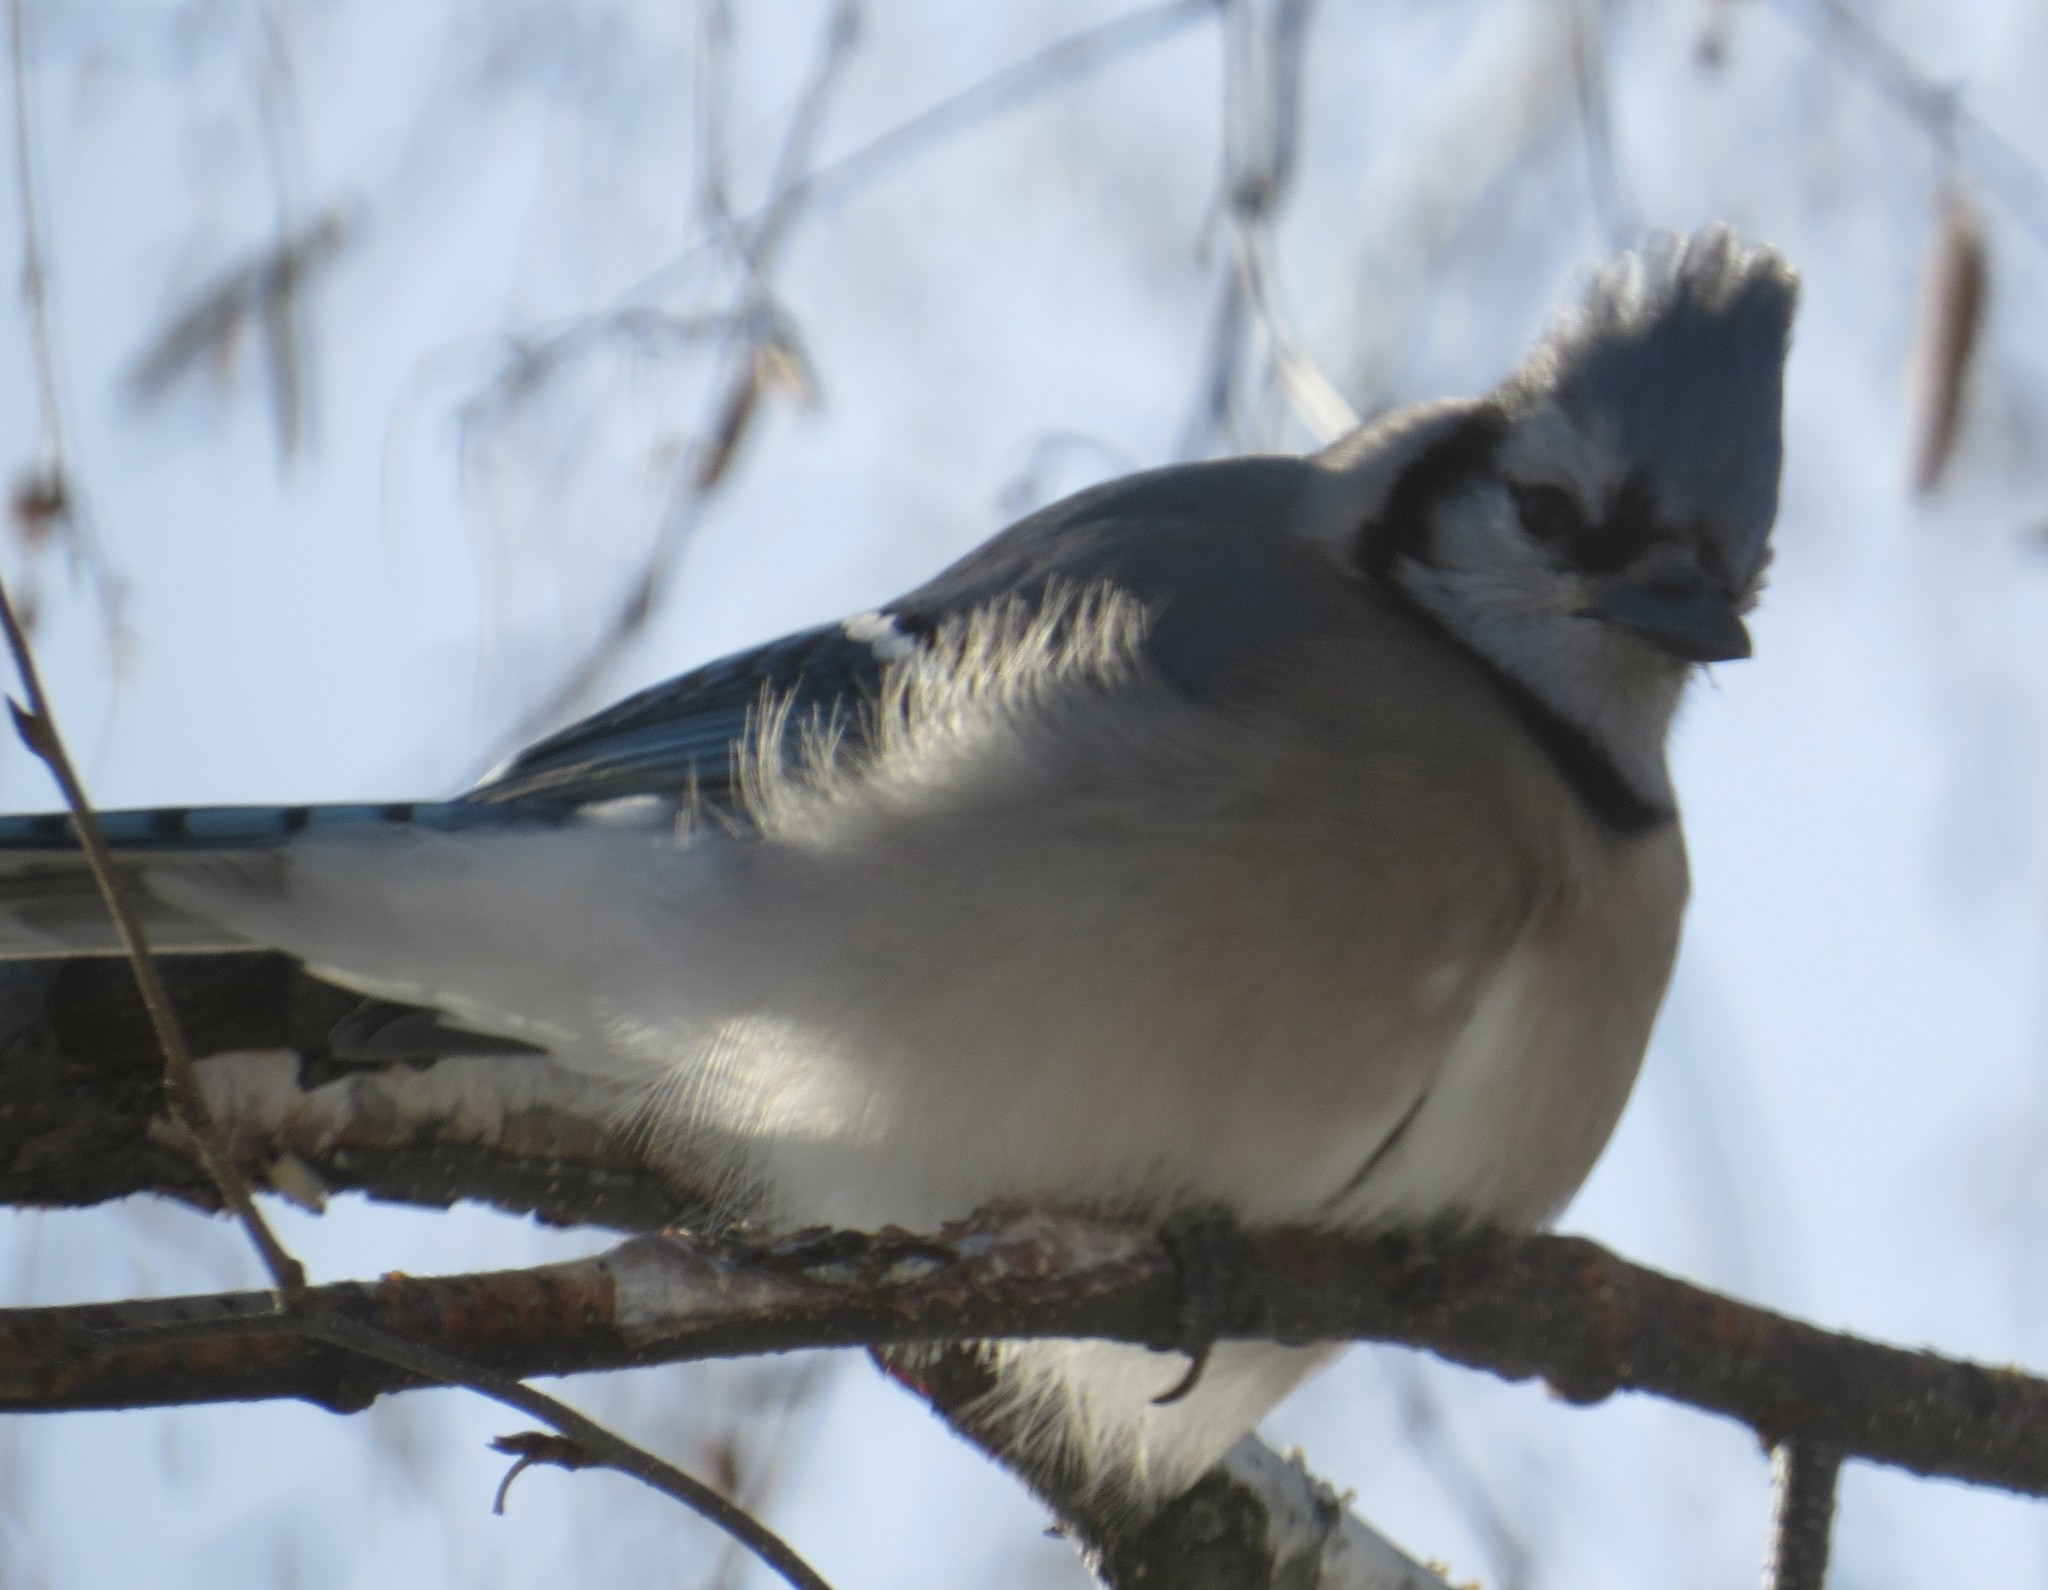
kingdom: Animalia
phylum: Chordata
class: Aves
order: Passeriformes
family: Corvidae
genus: Cyanocitta
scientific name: Cyanocitta cristata
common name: Blue jay
